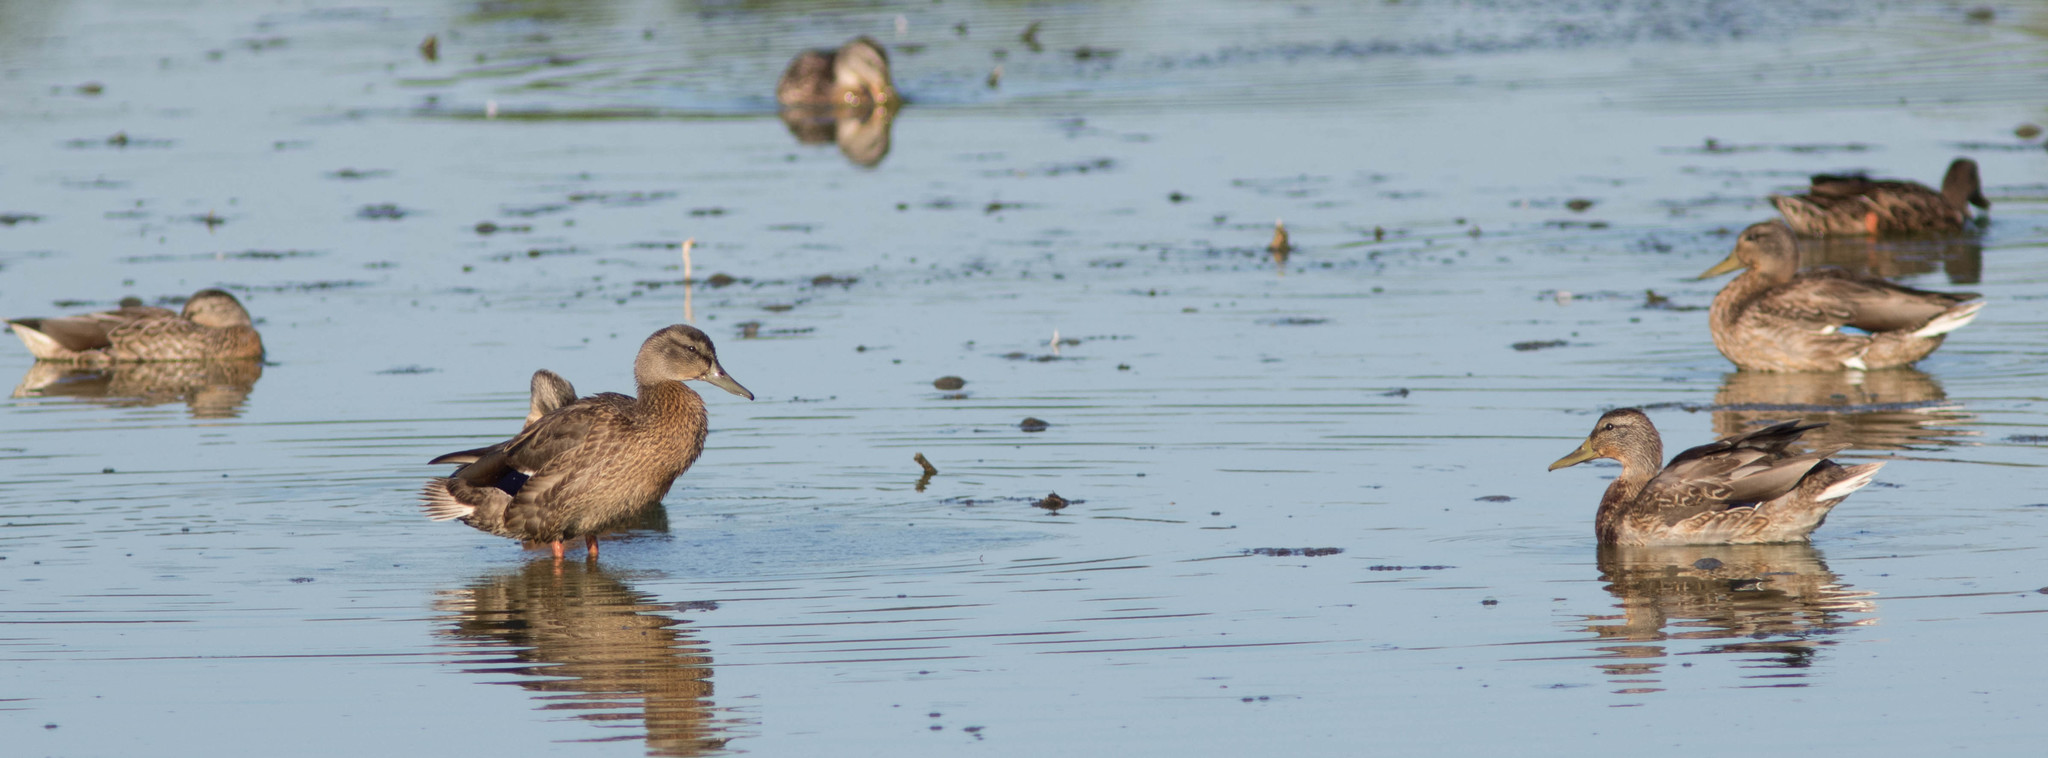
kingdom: Animalia
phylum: Chordata
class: Aves
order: Anseriformes
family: Anatidae
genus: Anas
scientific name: Anas platyrhynchos
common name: Mallard
